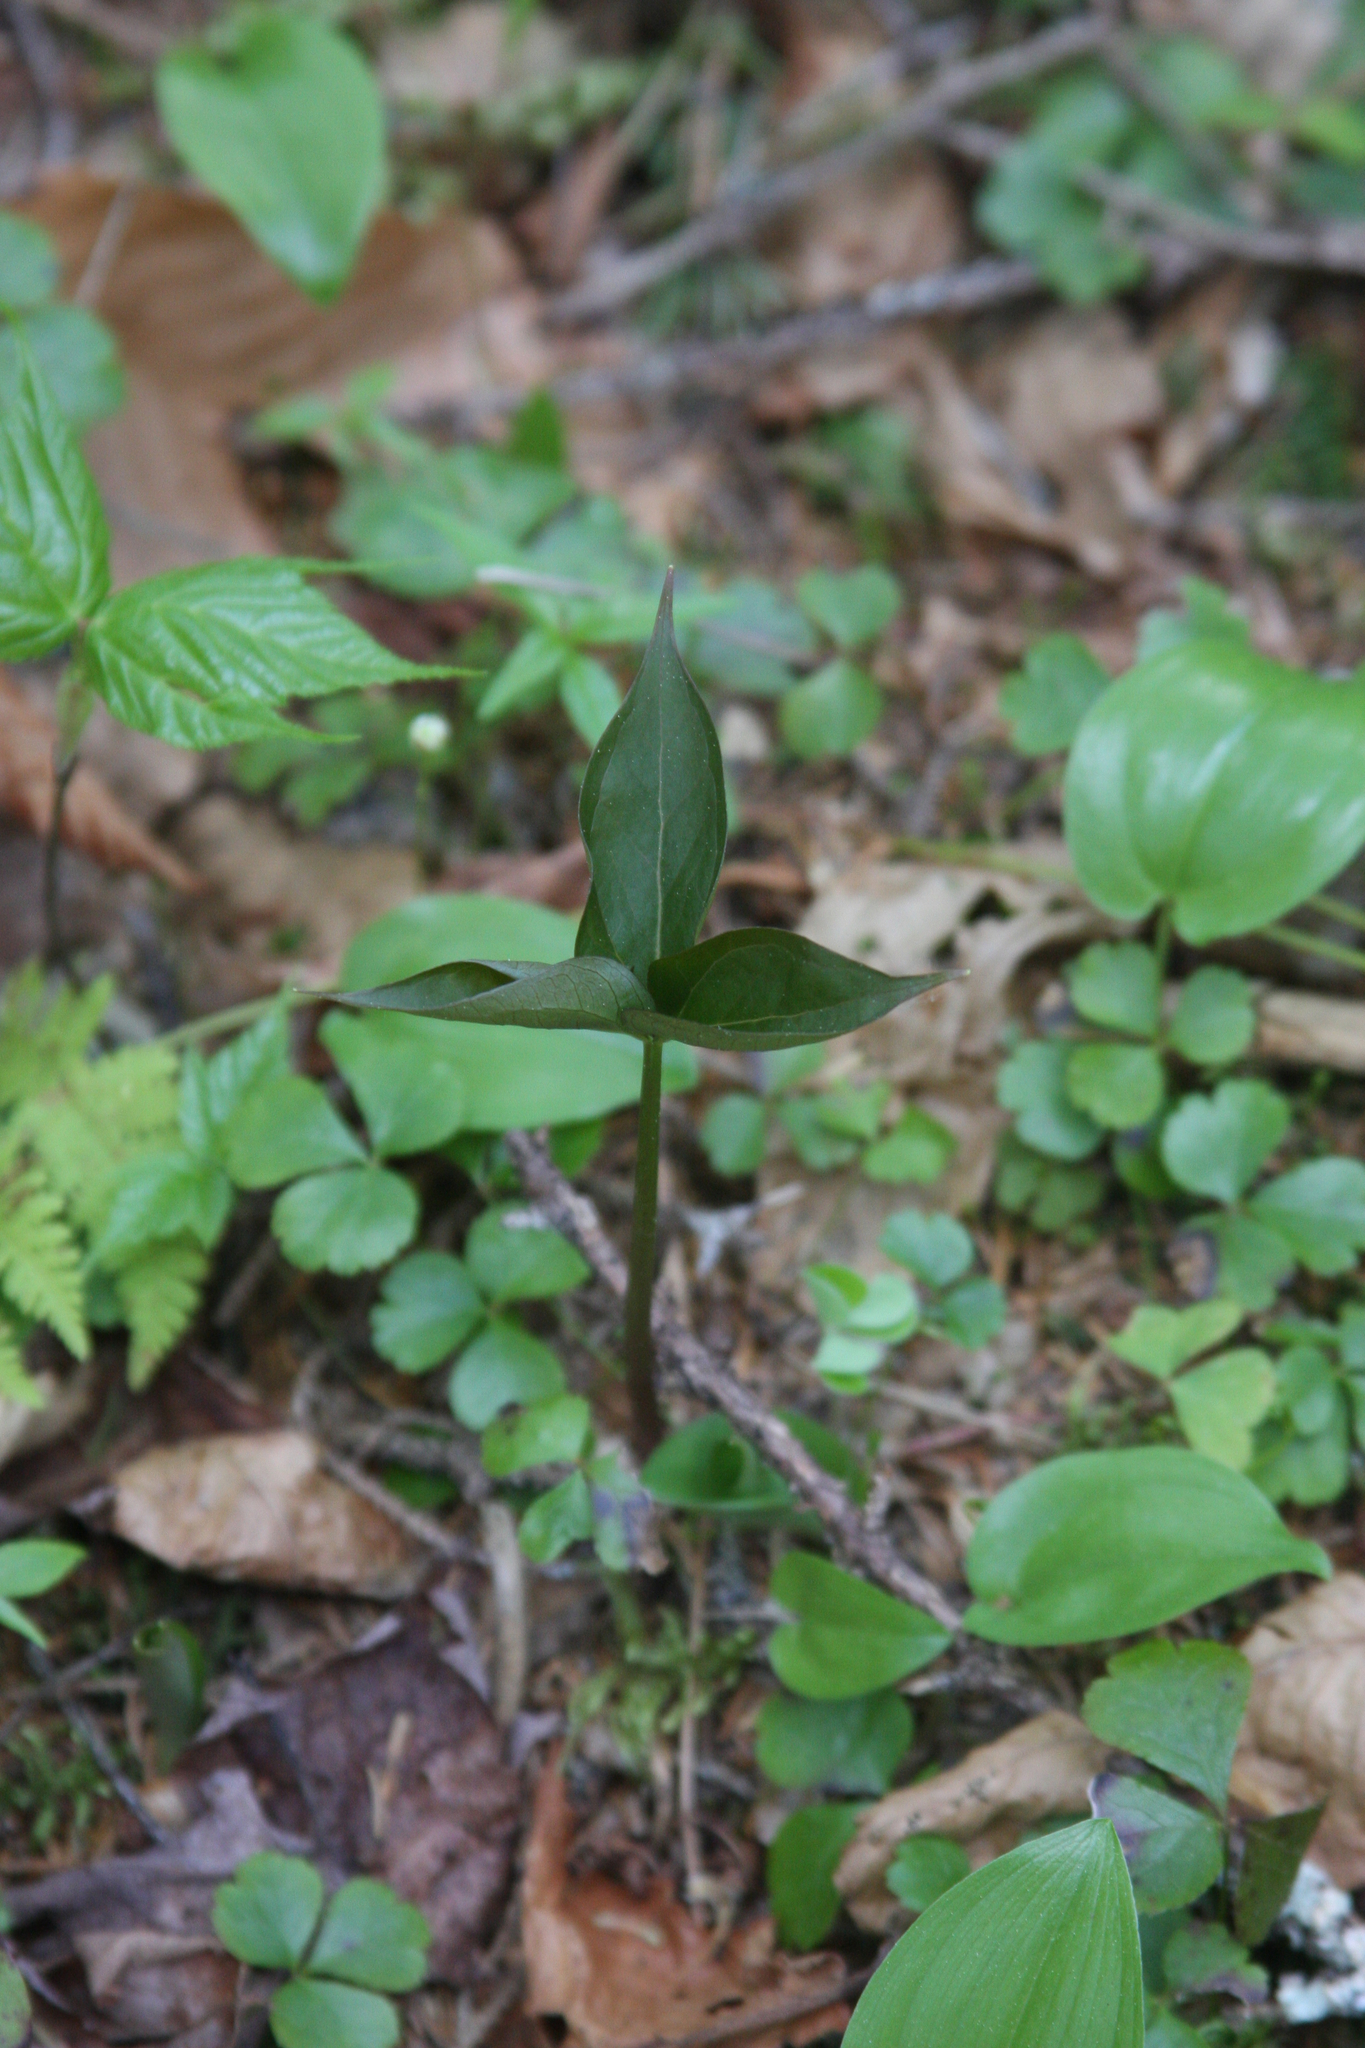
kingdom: Plantae
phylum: Tracheophyta
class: Liliopsida
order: Liliales
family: Melanthiaceae
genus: Trillium
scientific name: Trillium undulatum
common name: Paint trillium
